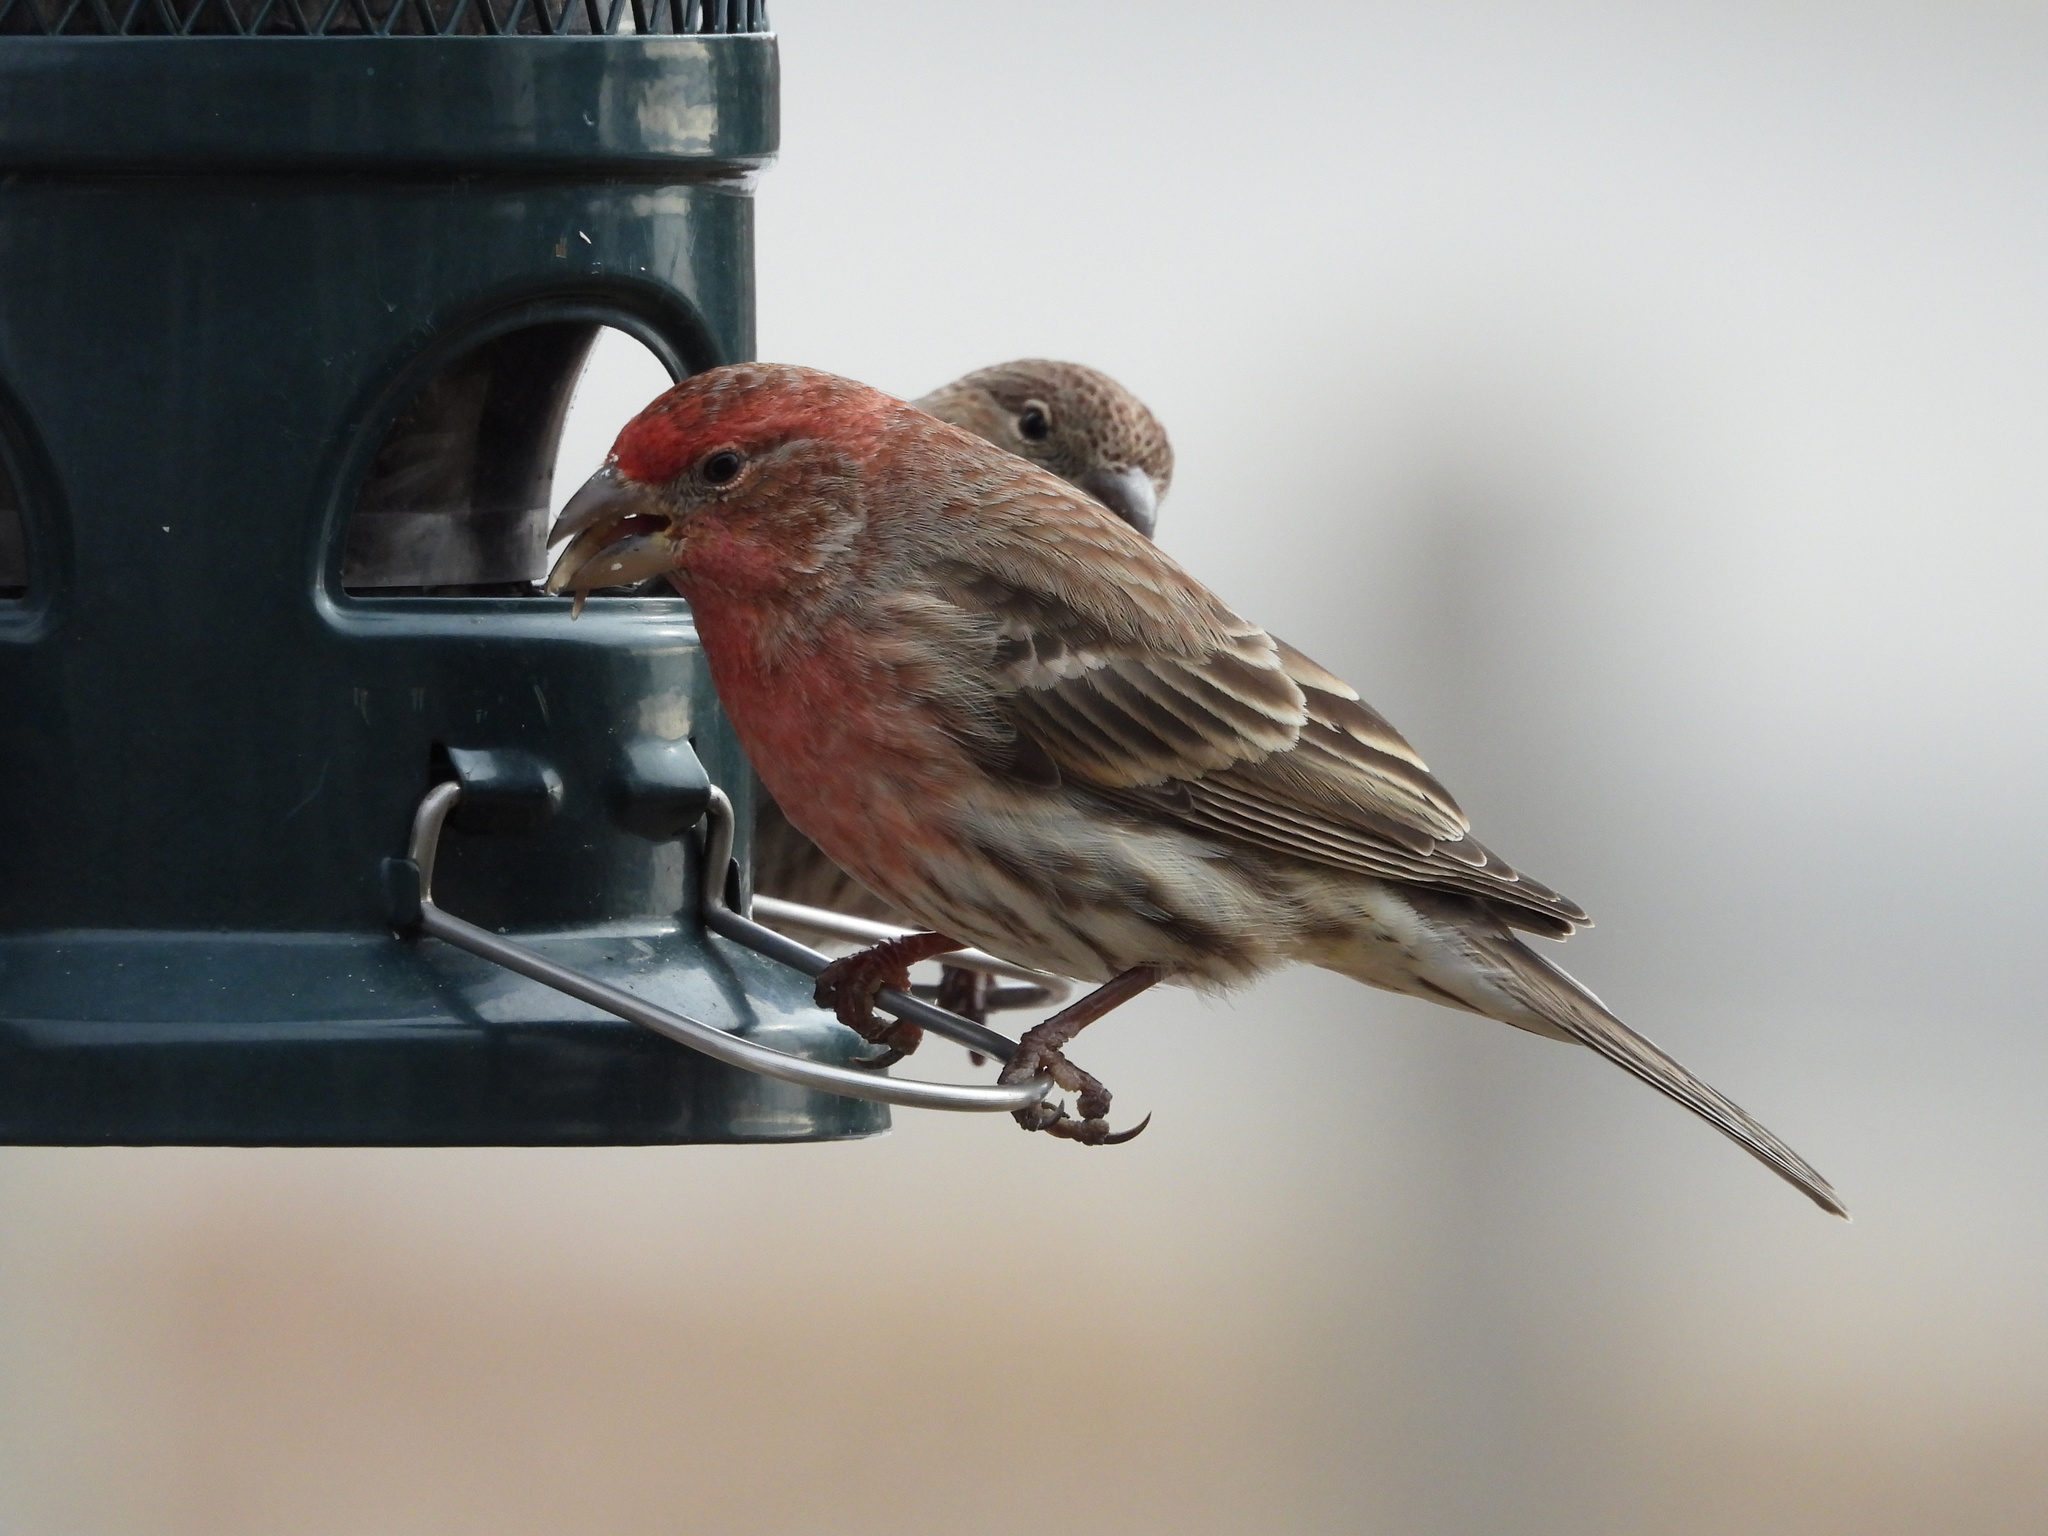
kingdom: Animalia
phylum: Chordata
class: Aves
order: Passeriformes
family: Fringillidae
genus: Haemorhous
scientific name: Haemorhous mexicanus
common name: House finch
